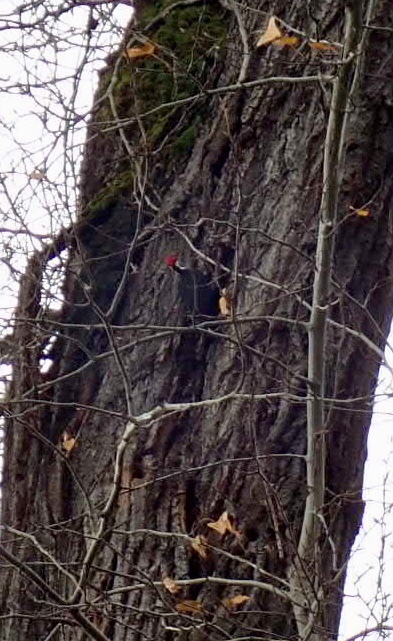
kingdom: Animalia
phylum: Chordata
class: Aves
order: Piciformes
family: Picidae
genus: Dryocopus
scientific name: Dryocopus pileatus
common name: Pileated woodpecker
